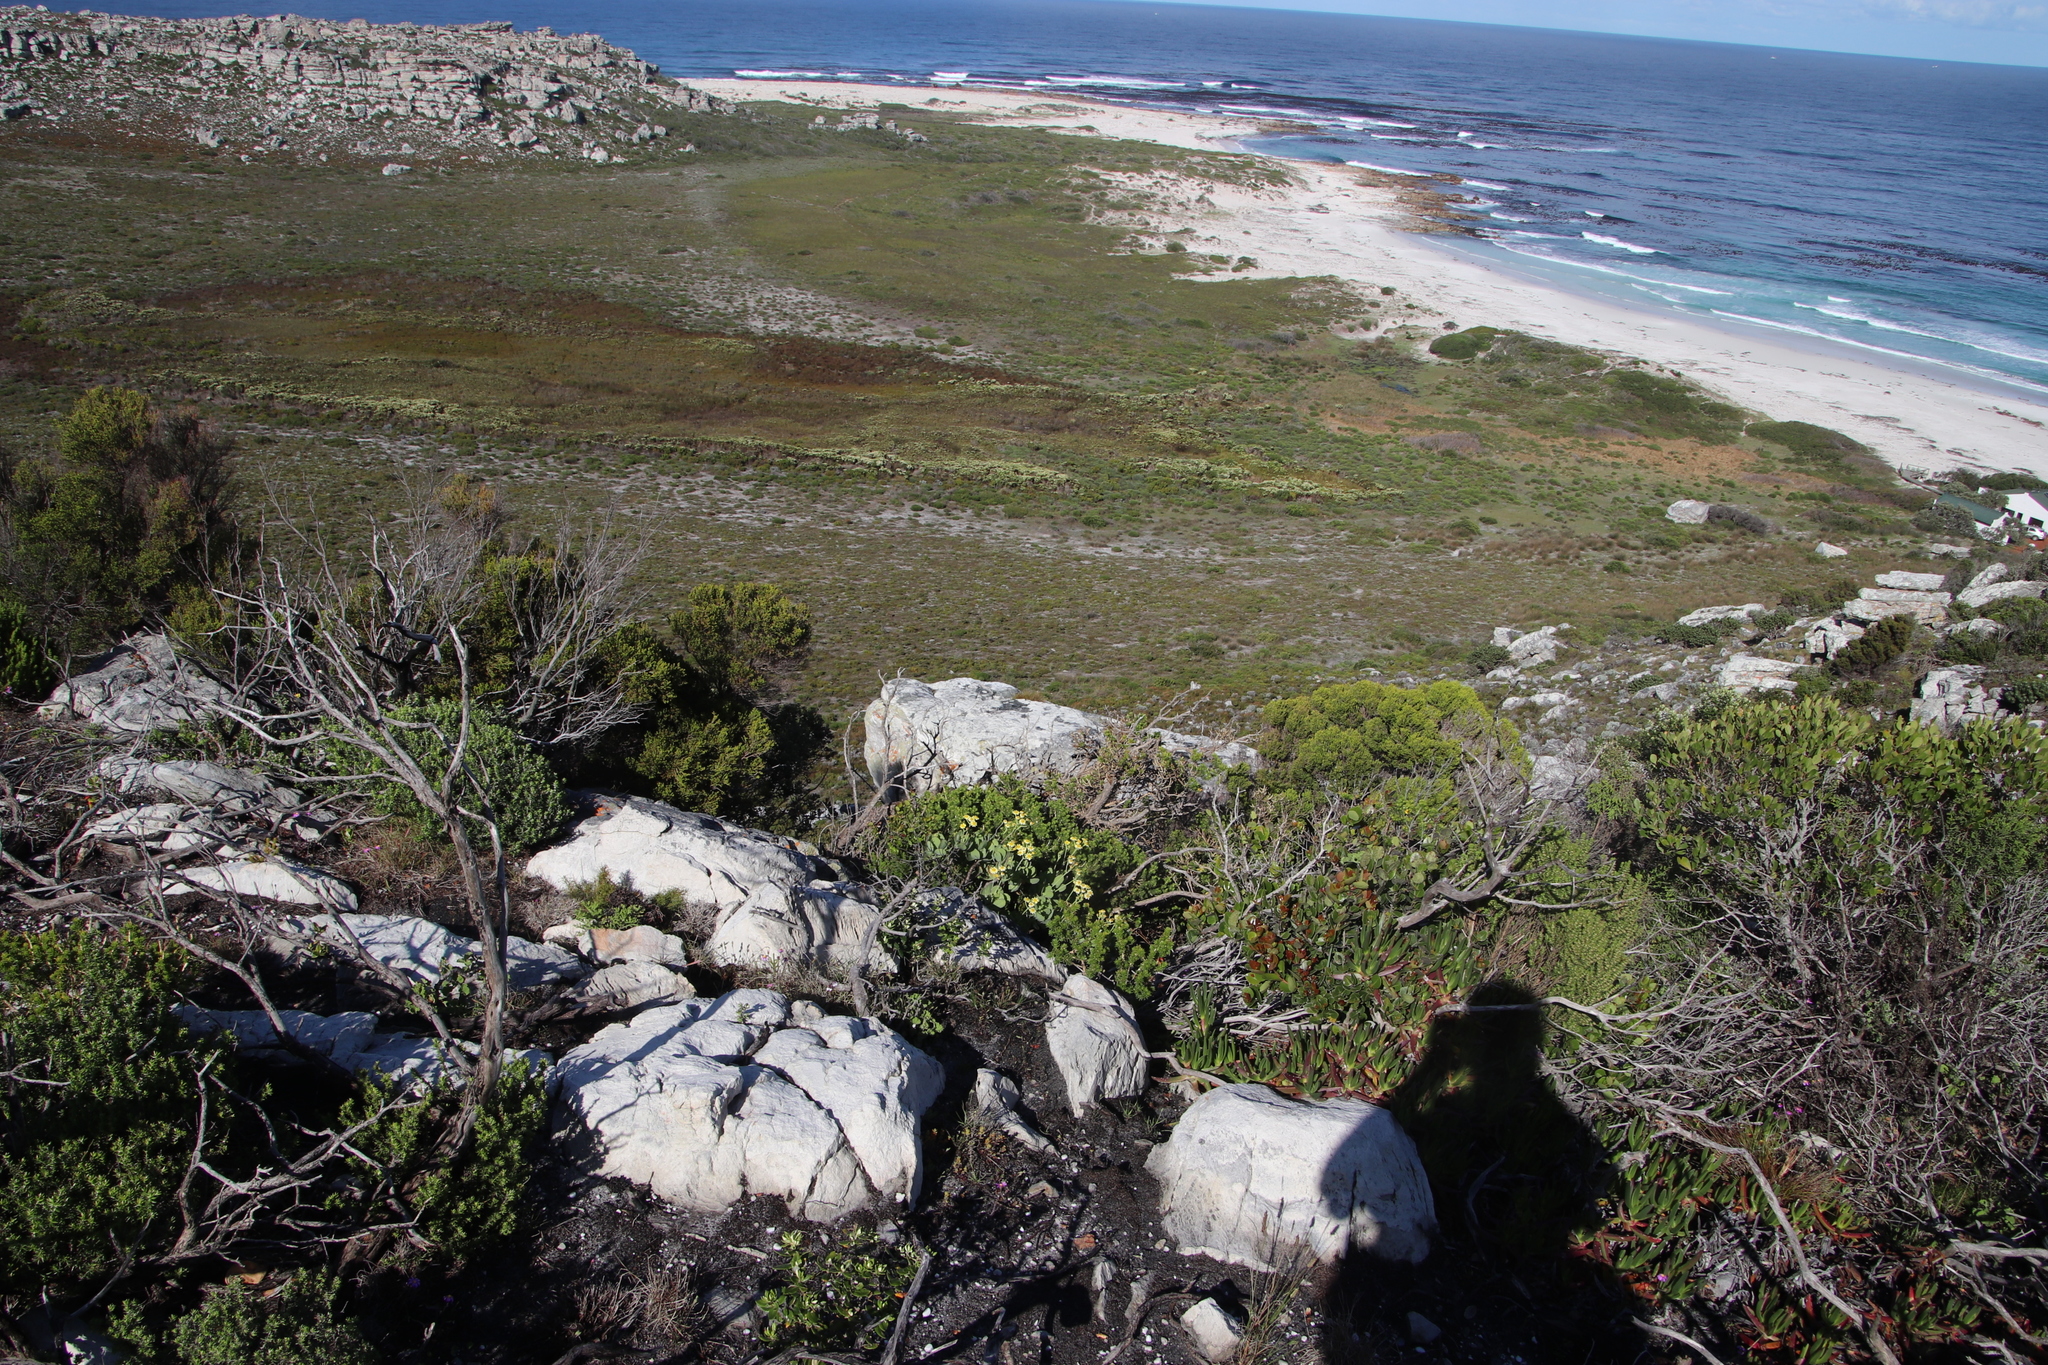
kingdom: Plantae
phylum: Tracheophyta
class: Magnoliopsida
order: Asterales
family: Asteraceae
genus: Othonna
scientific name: Othonna dentata
